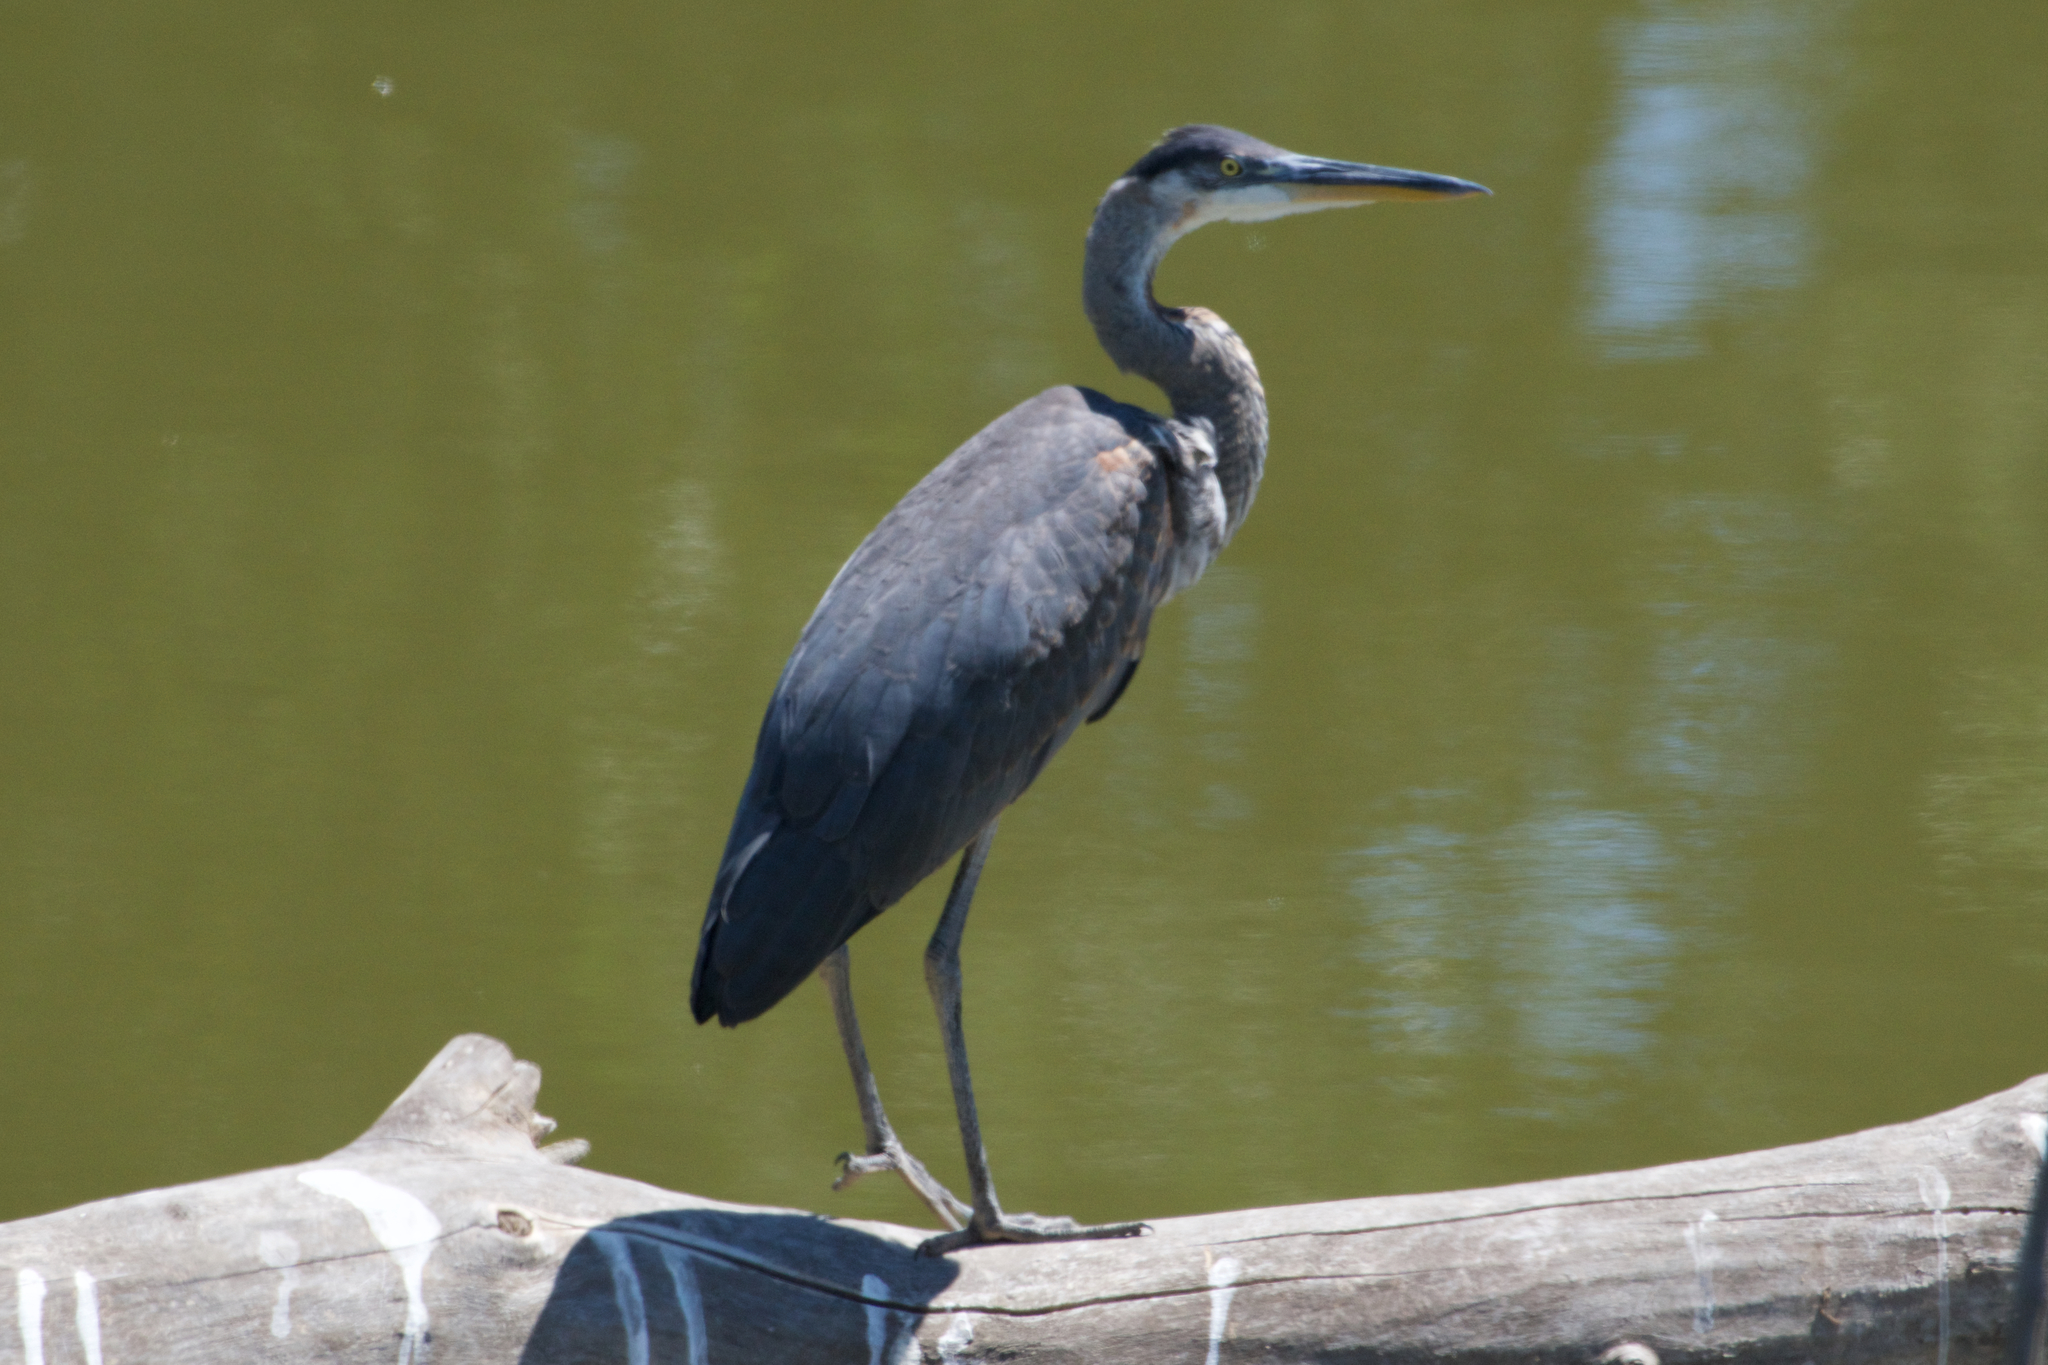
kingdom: Animalia
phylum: Chordata
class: Aves
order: Pelecaniformes
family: Ardeidae
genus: Ardea
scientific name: Ardea herodias
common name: Great blue heron
